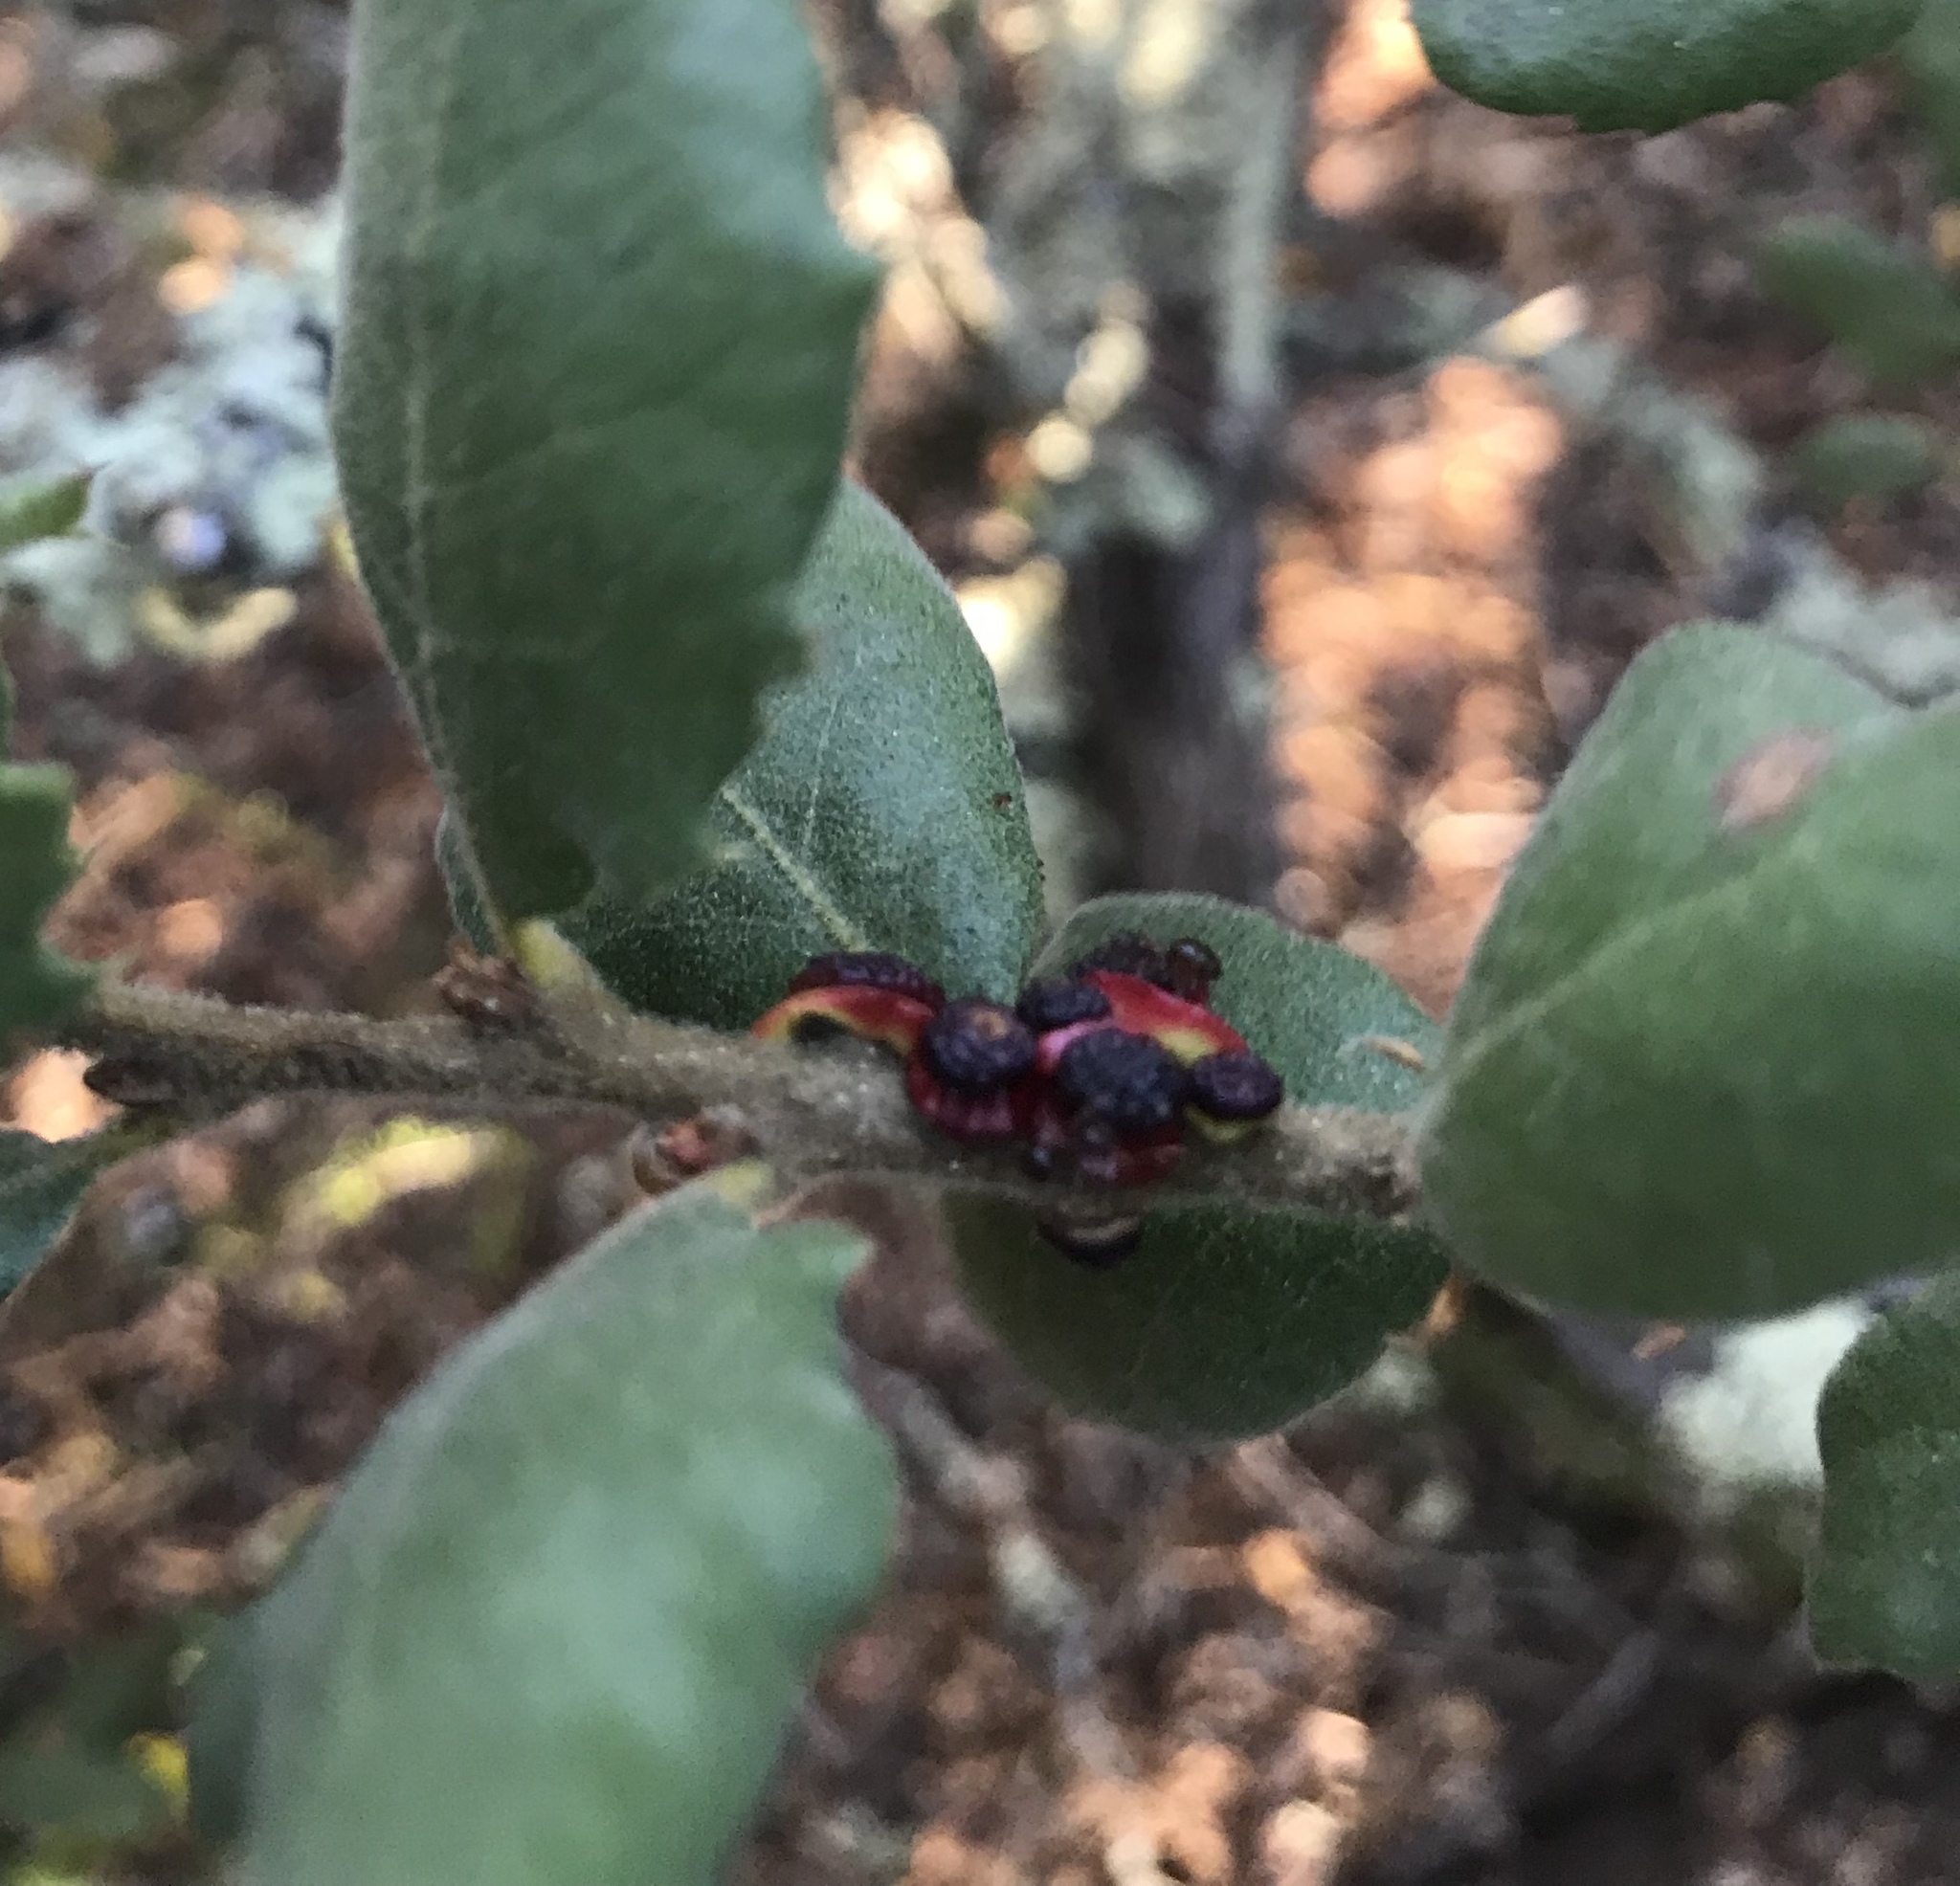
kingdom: Animalia
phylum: Arthropoda
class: Insecta
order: Hymenoptera
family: Cynipidae
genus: Disholcaspis
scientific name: Disholcaspis prehensa
